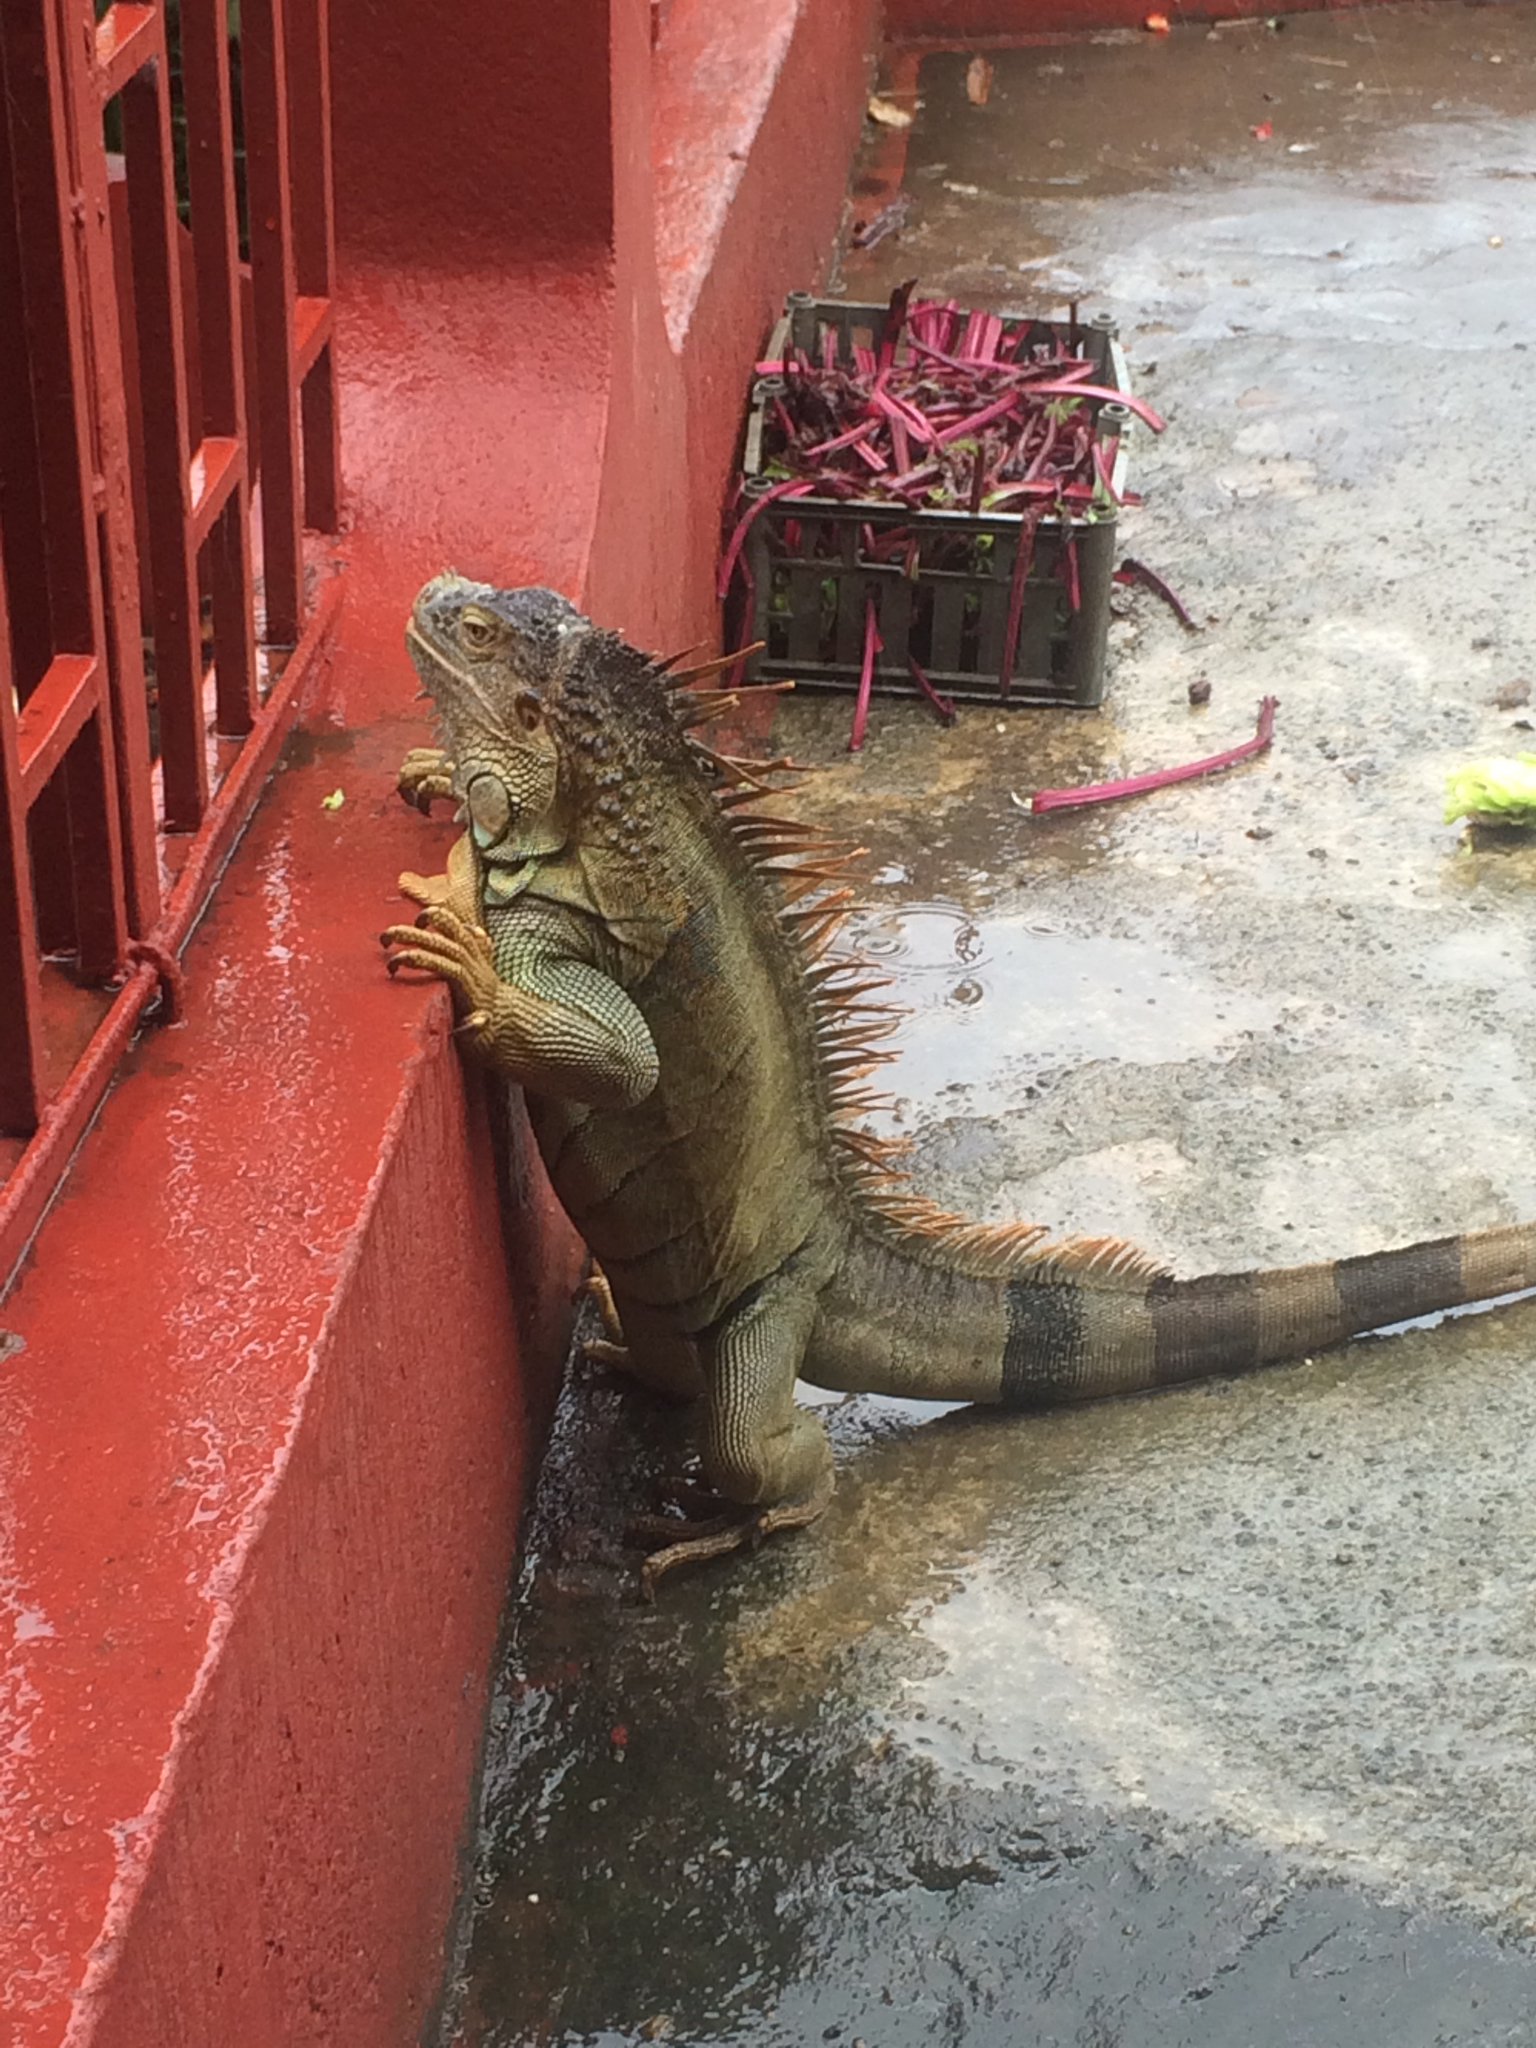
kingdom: Animalia
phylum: Chordata
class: Squamata
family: Iguanidae
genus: Iguana
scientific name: Iguana iguana
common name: Green iguana
